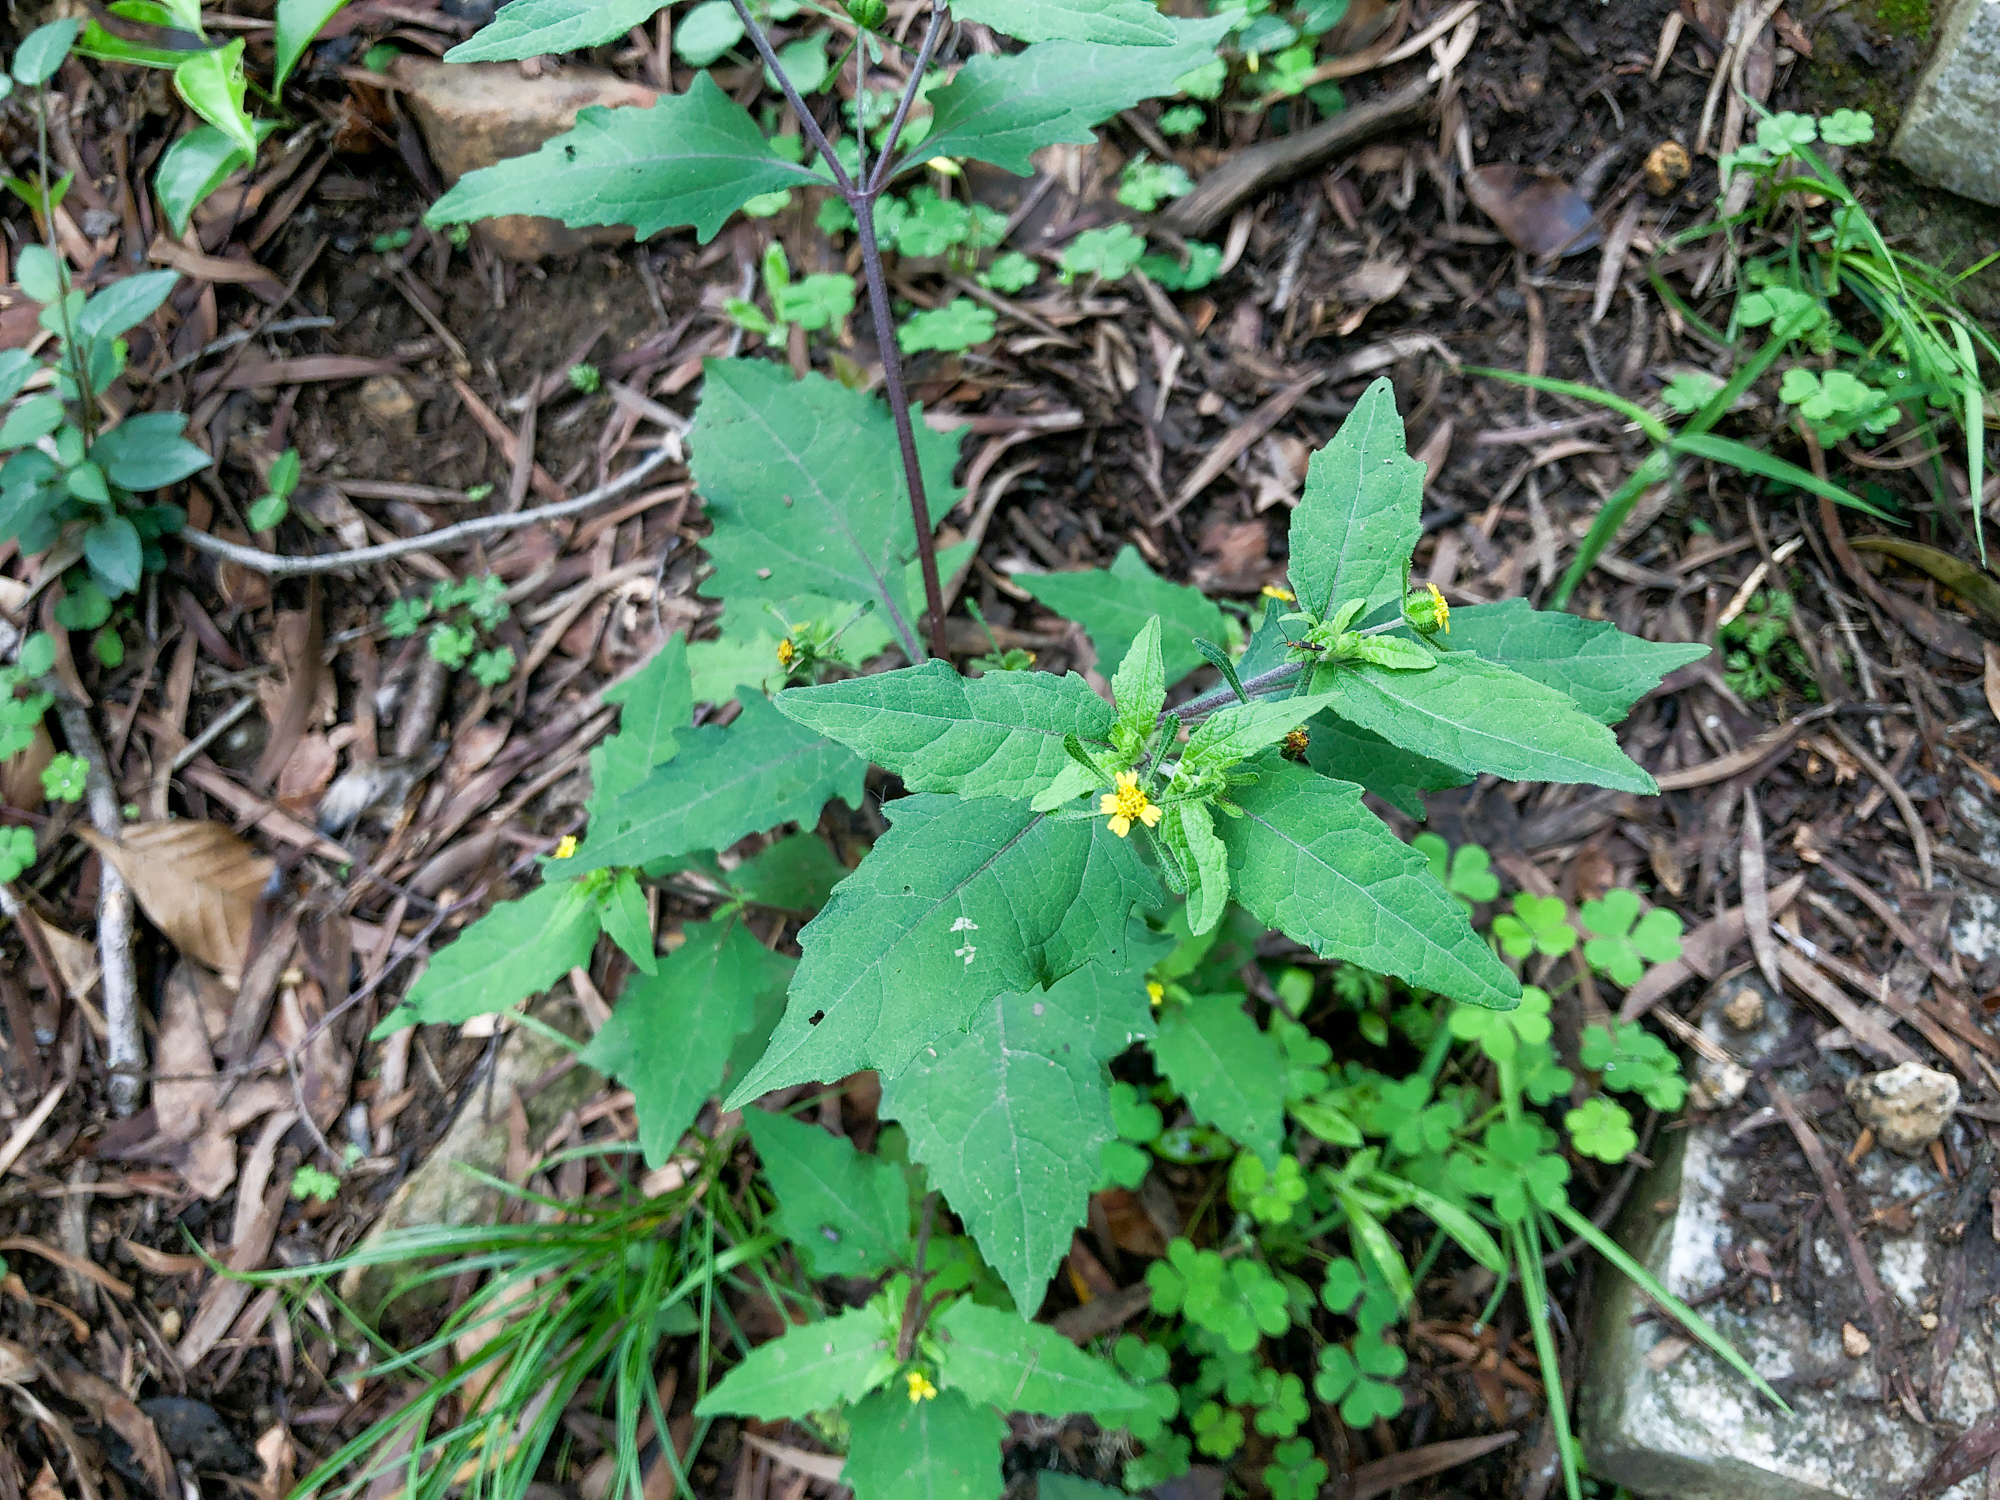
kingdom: Plantae
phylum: Tracheophyta
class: Magnoliopsida
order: Asterales
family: Asteraceae
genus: Sigesbeckia
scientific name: Sigesbeckia orientalis
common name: Eastern st paul's-wort
